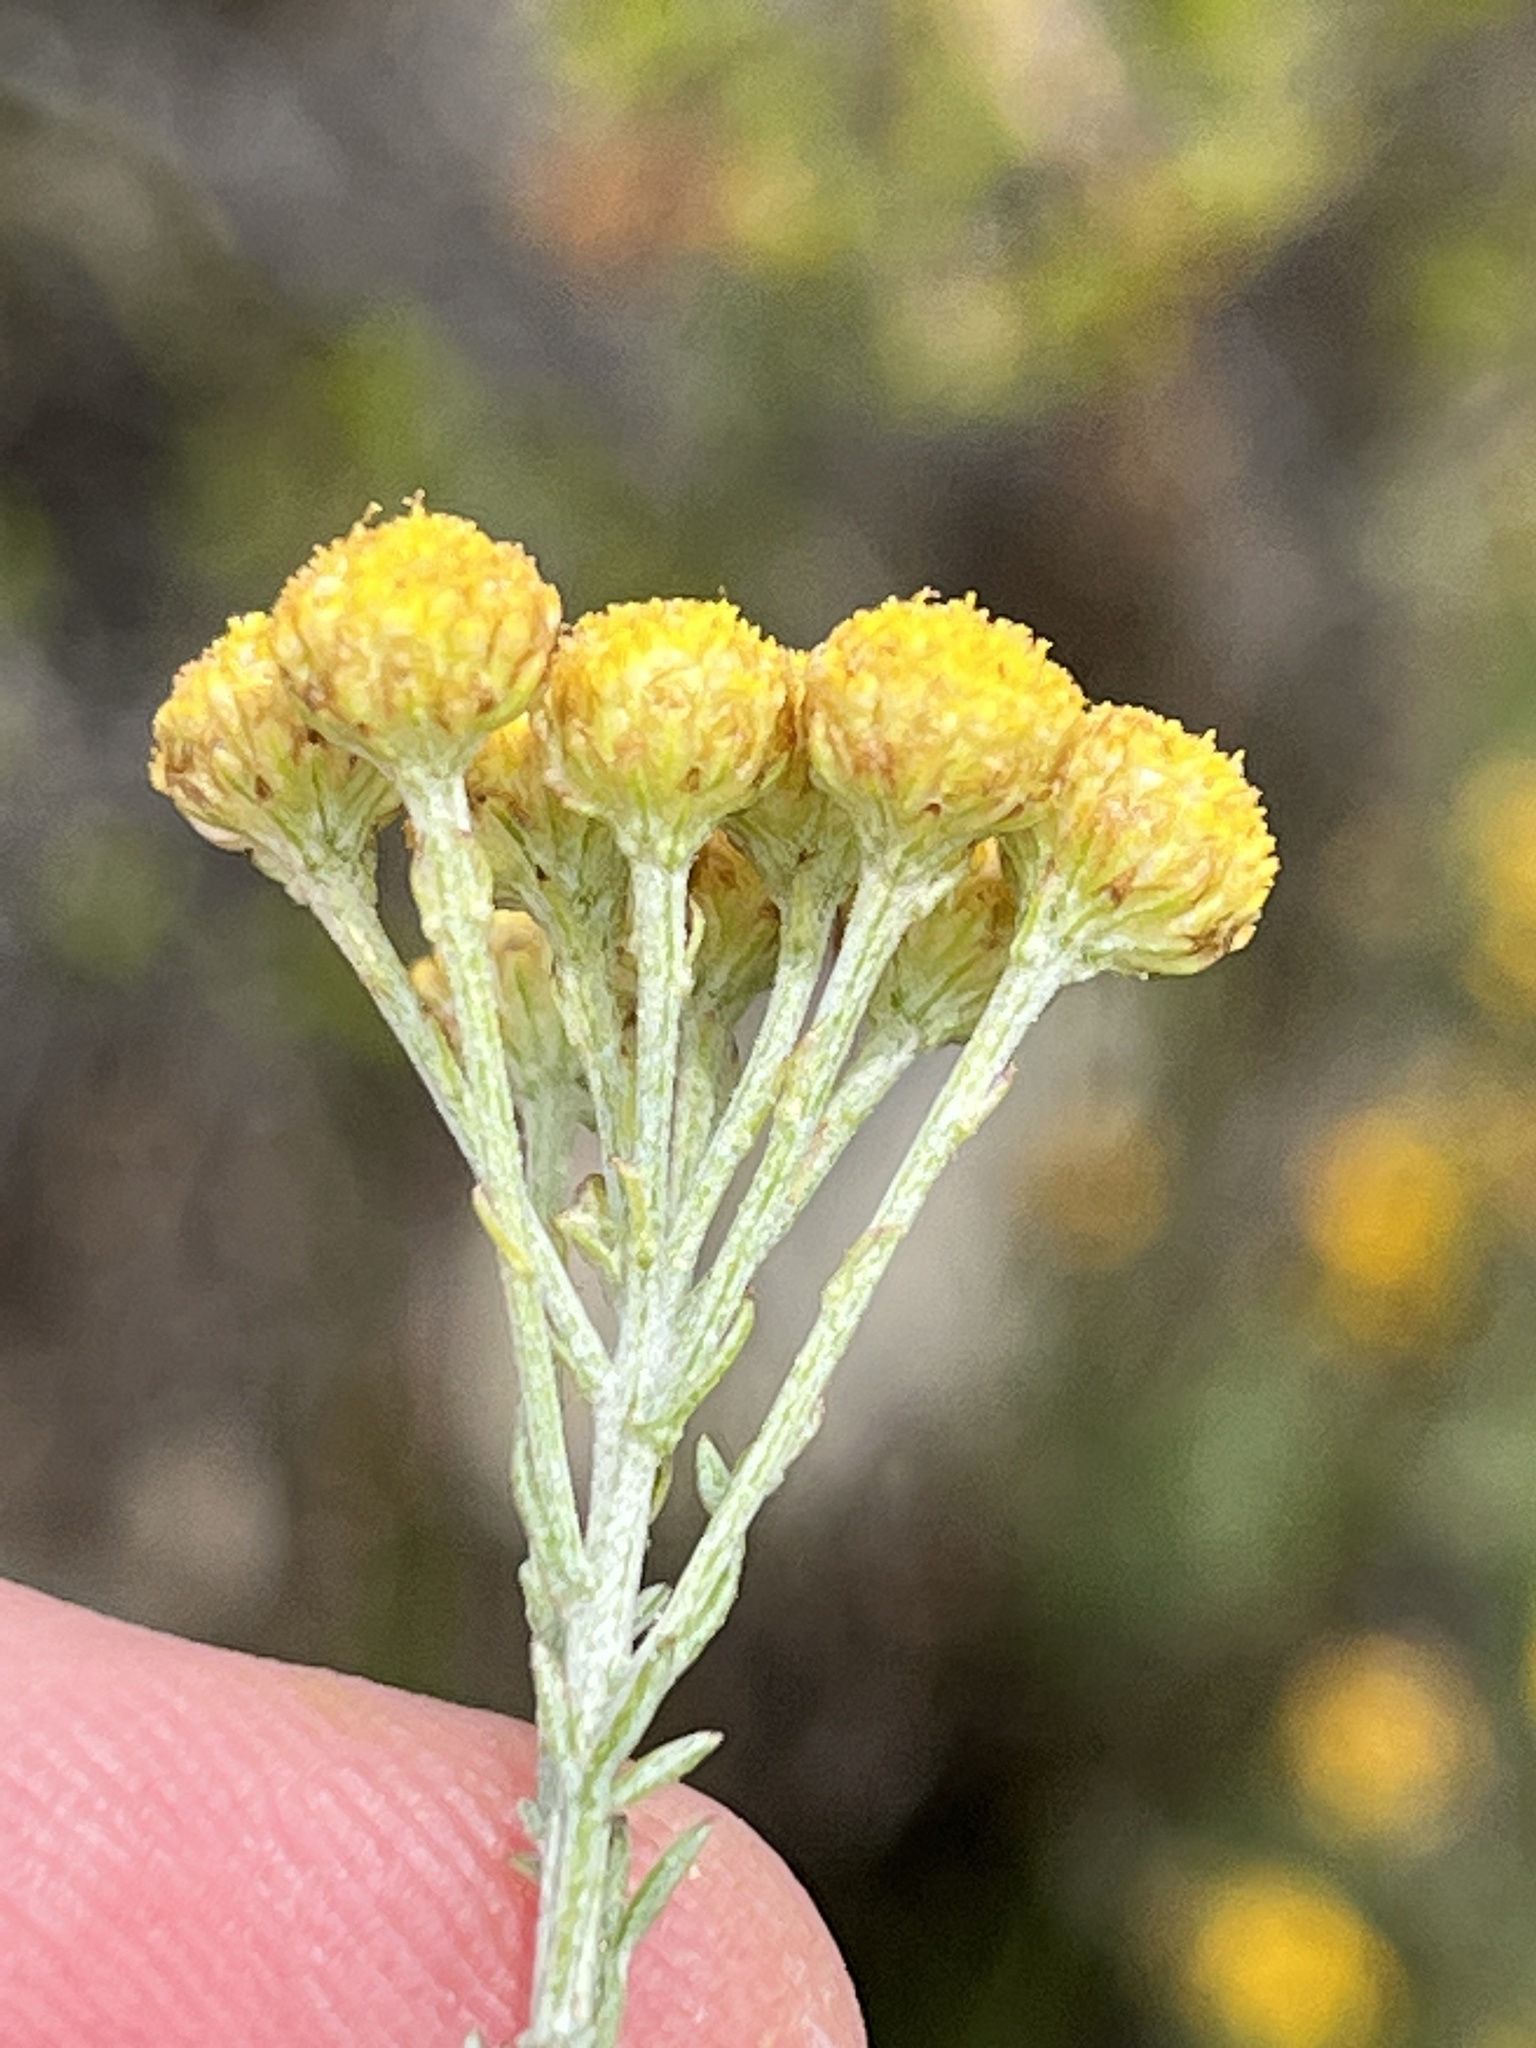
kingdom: Plantae
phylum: Tracheophyta
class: Magnoliopsida
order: Asterales
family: Asteraceae
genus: Athanasia
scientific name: Athanasia trifurcata
